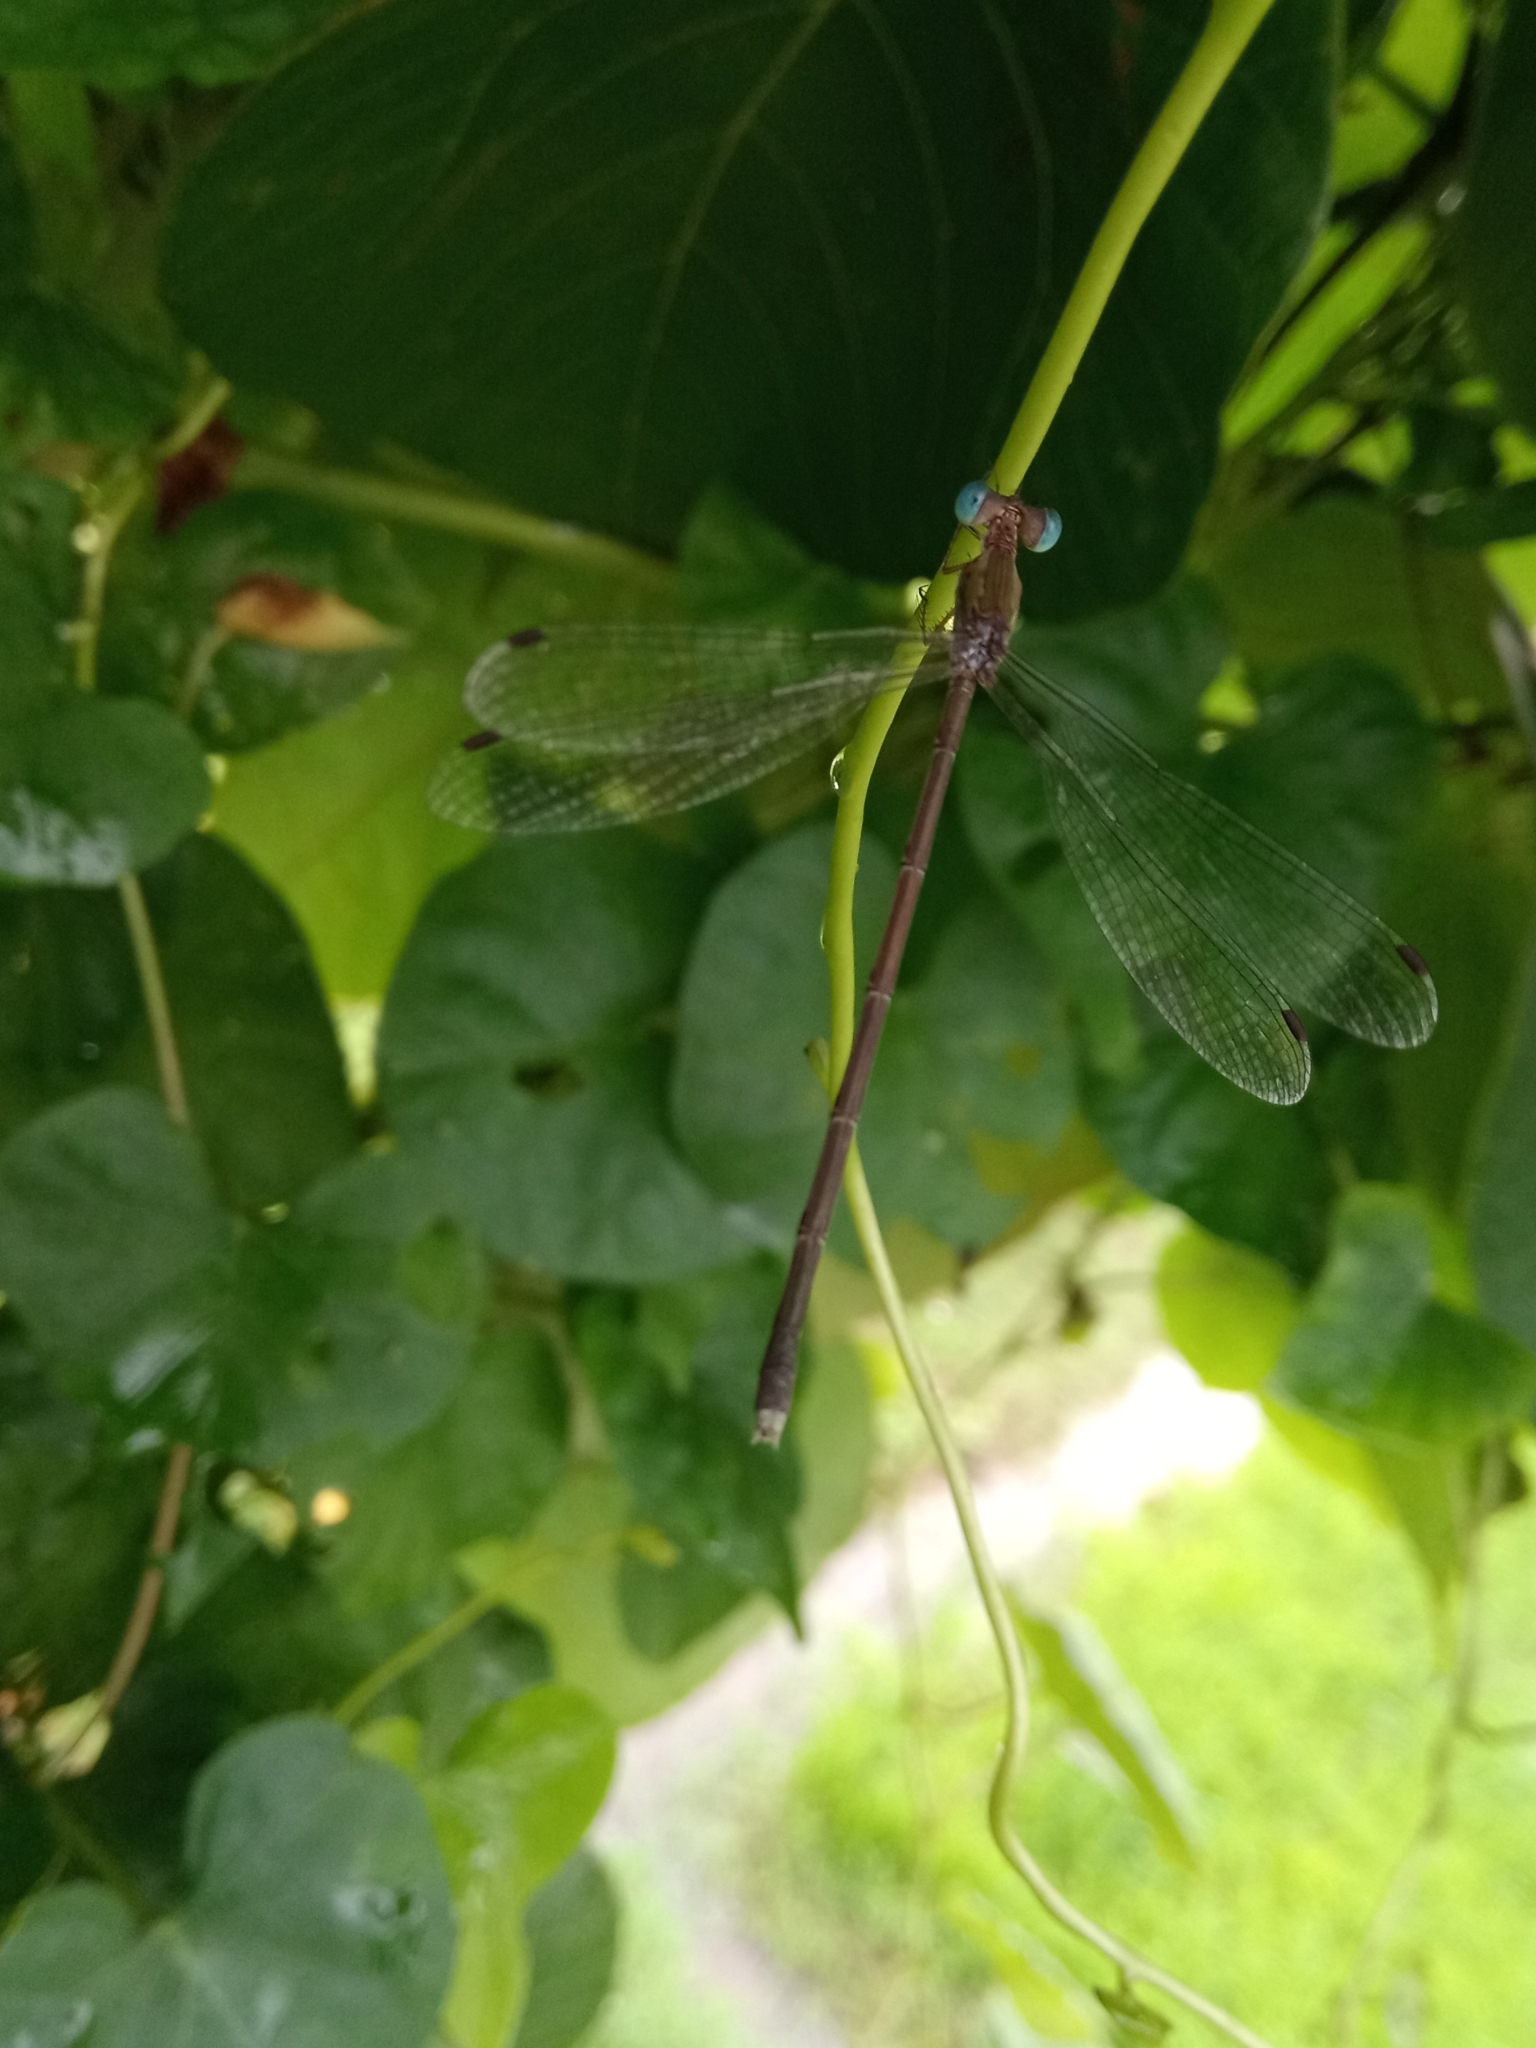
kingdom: Animalia
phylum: Arthropoda
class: Insecta
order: Odonata
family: Lestidae
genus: Lestes
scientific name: Lestes elatus
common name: Emerald spreadwing
